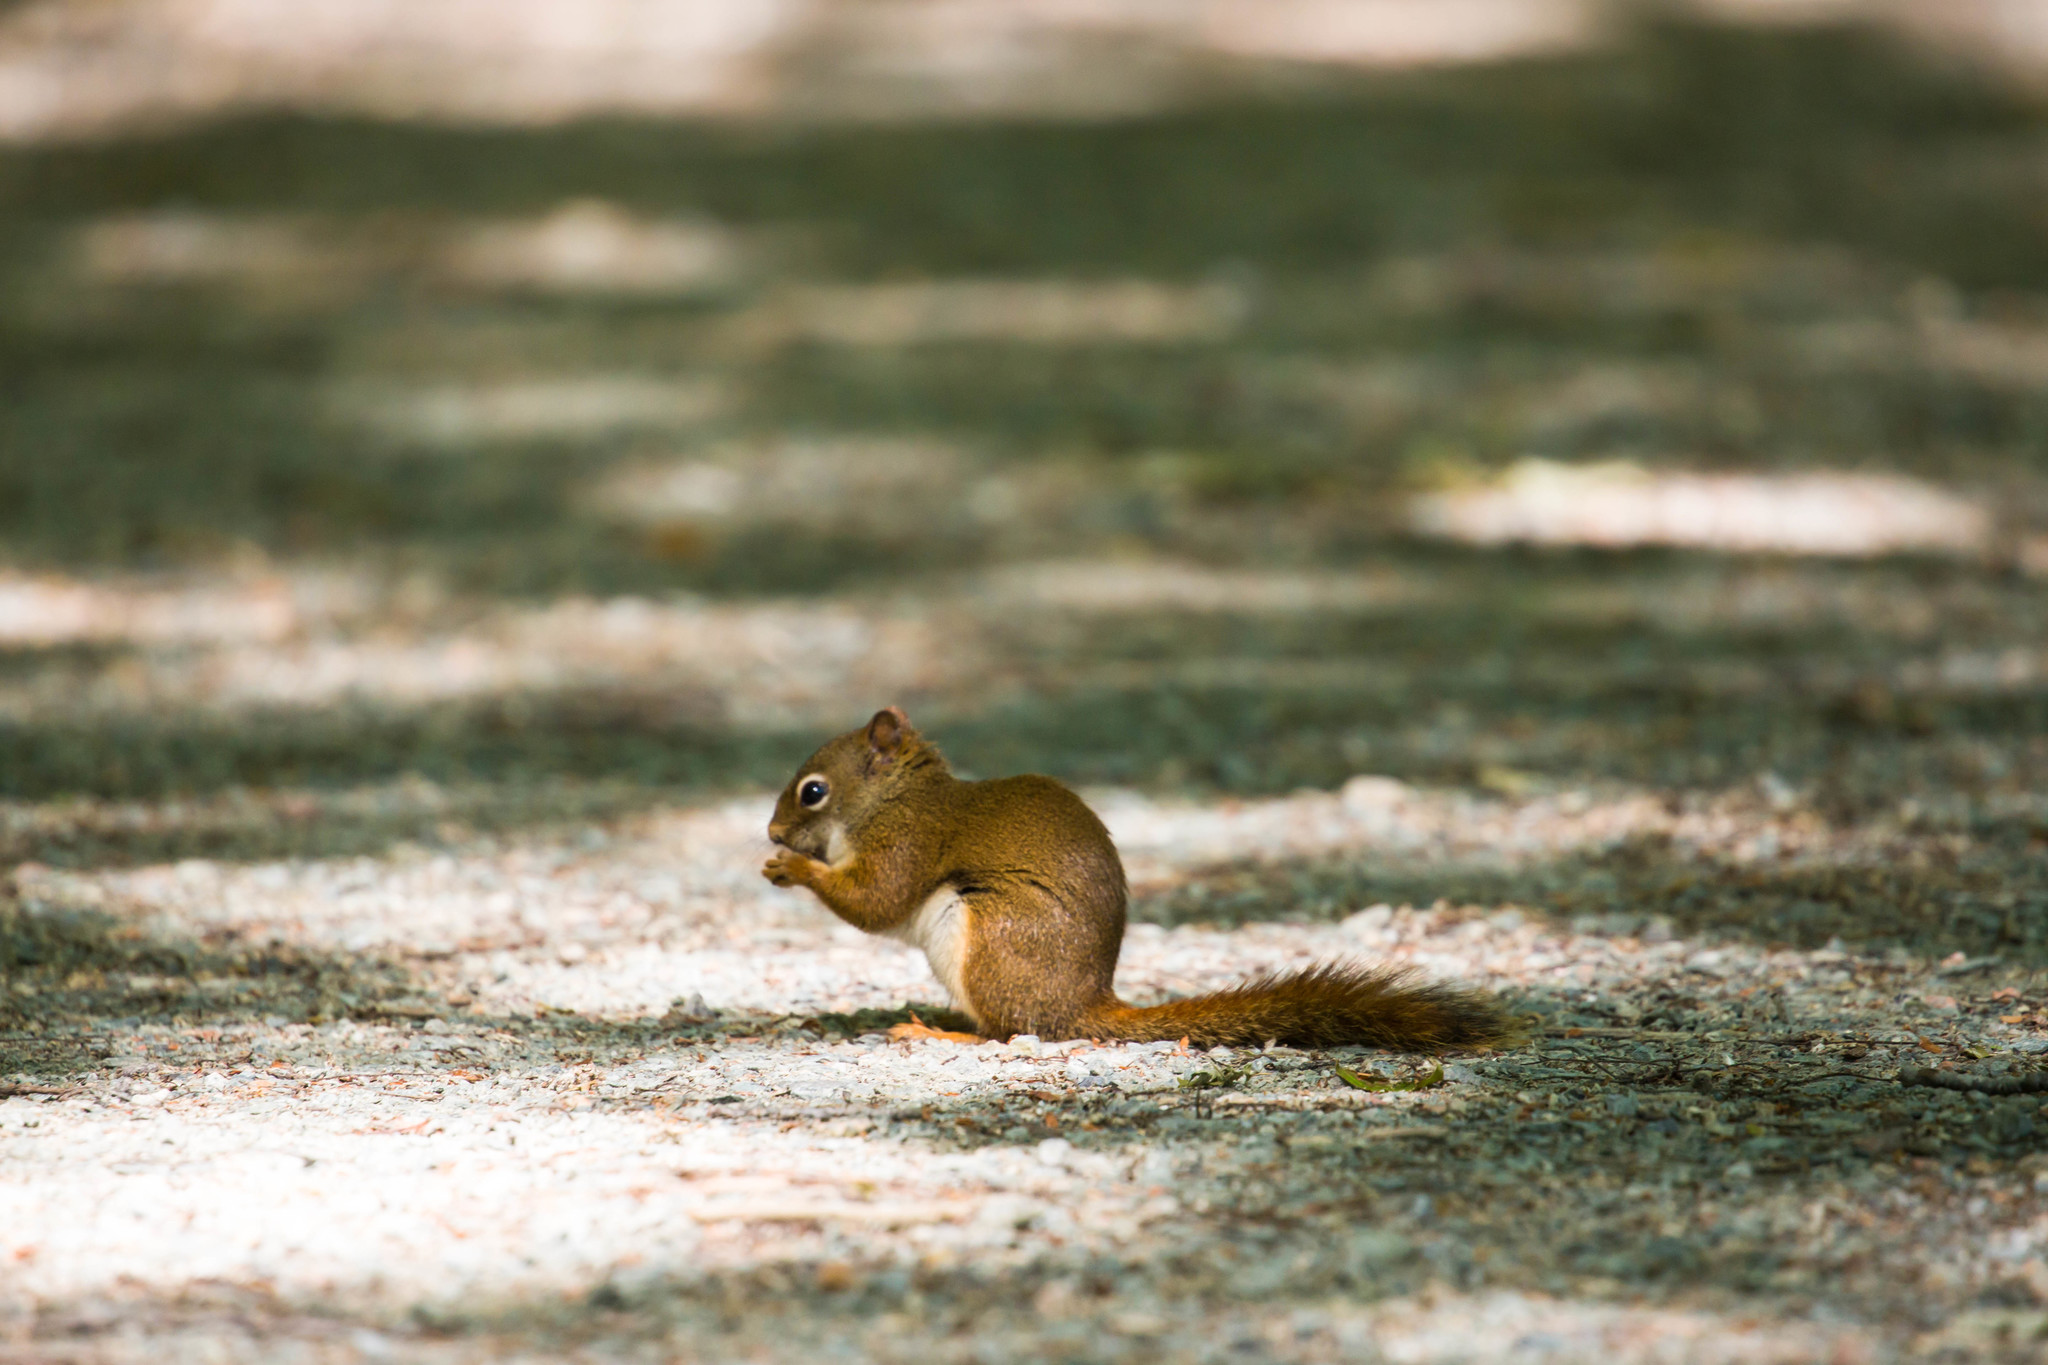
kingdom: Animalia
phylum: Chordata
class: Mammalia
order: Rodentia
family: Sciuridae
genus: Tamiasciurus
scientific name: Tamiasciurus hudsonicus
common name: Red squirrel
